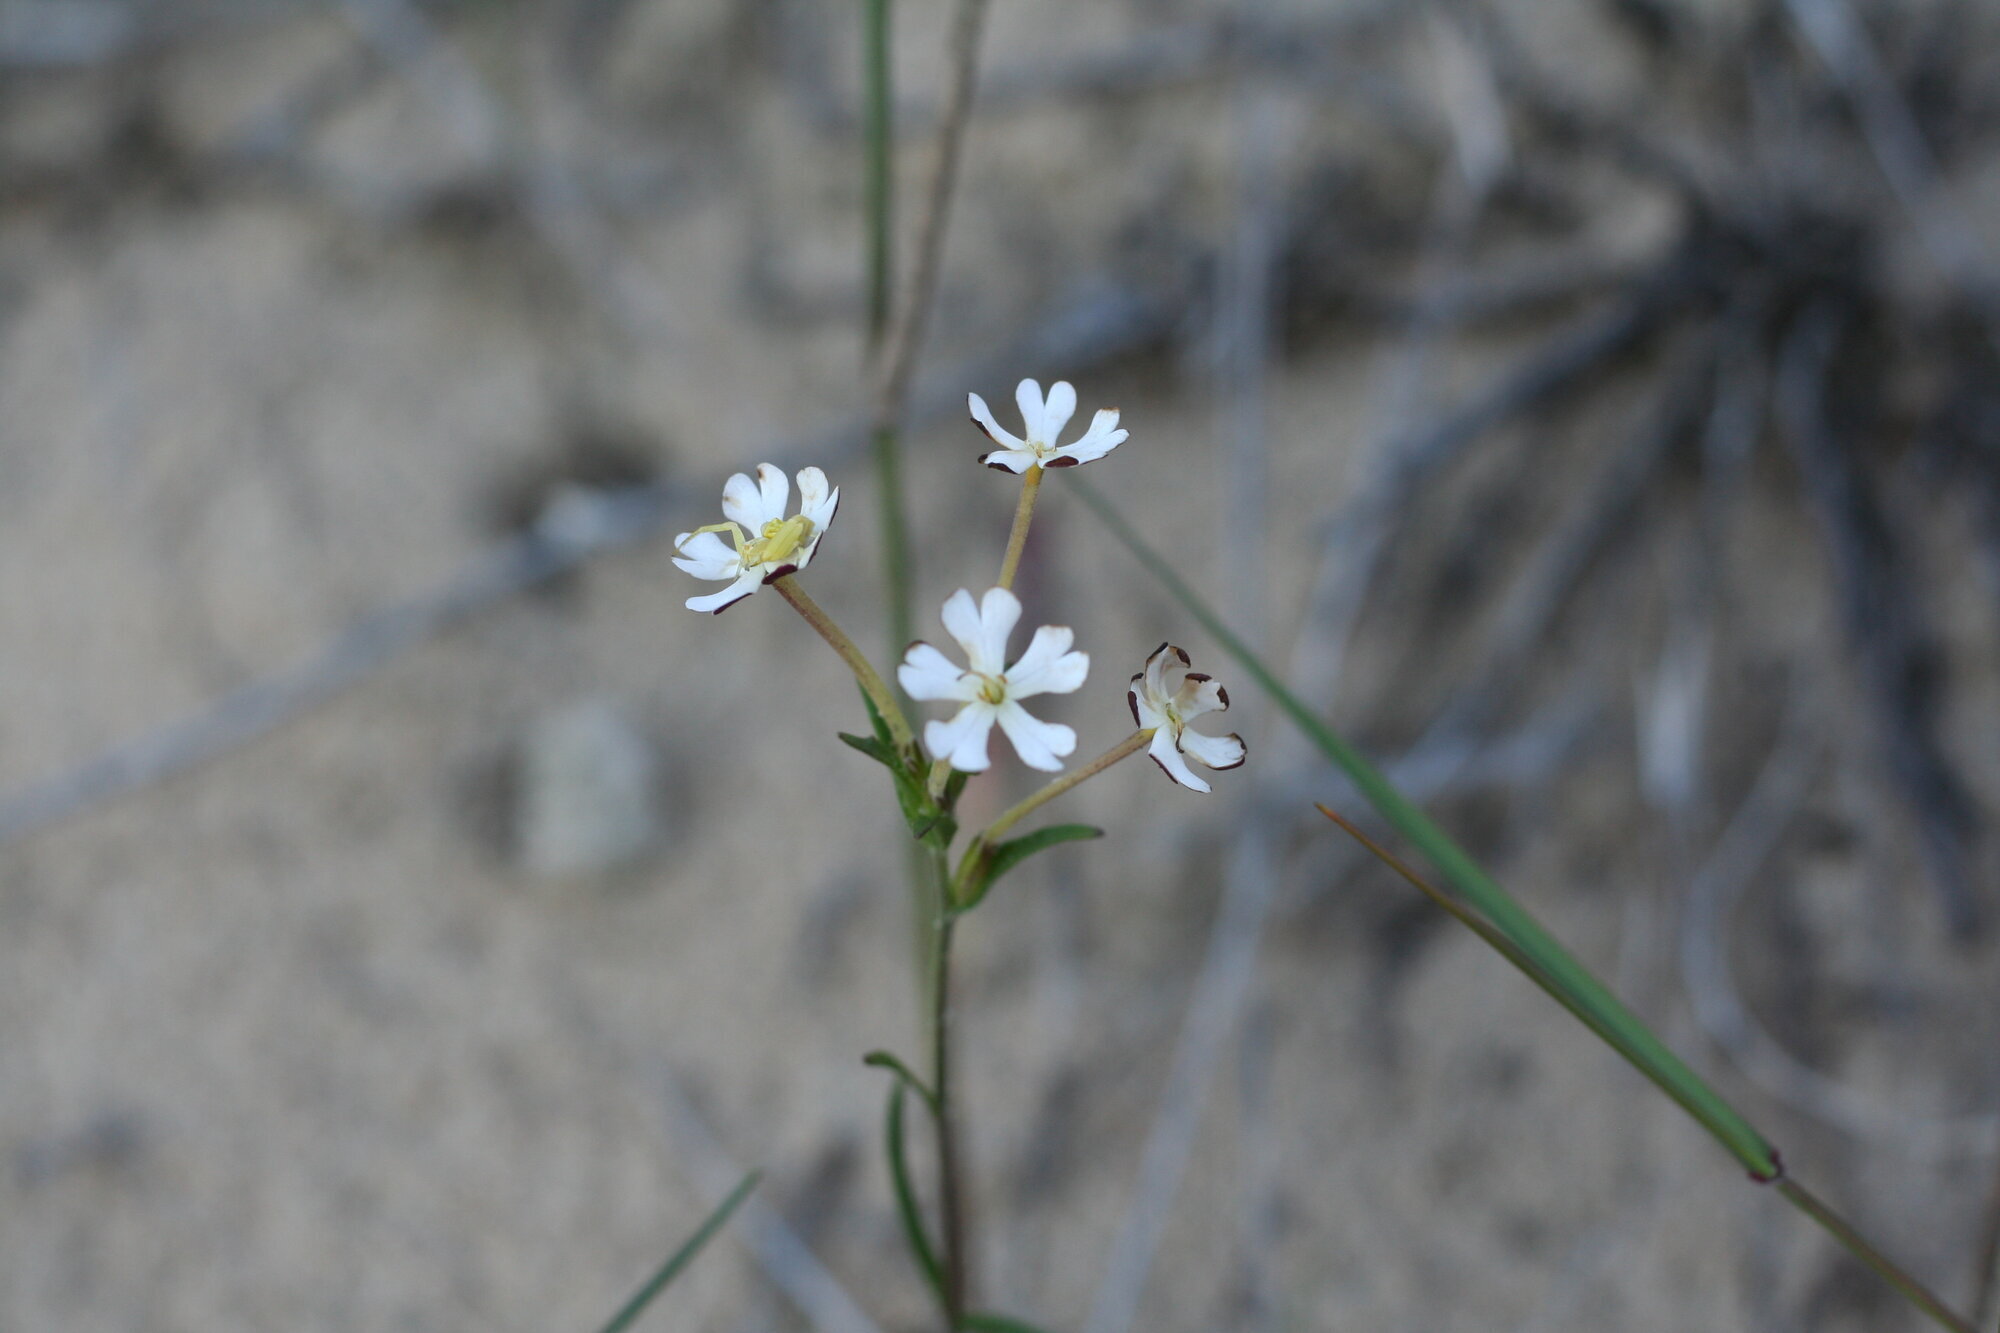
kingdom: Plantae
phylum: Tracheophyta
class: Magnoliopsida
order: Lamiales
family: Scrophulariaceae
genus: Zaluzianskya
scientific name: Zaluzianskya capensis
